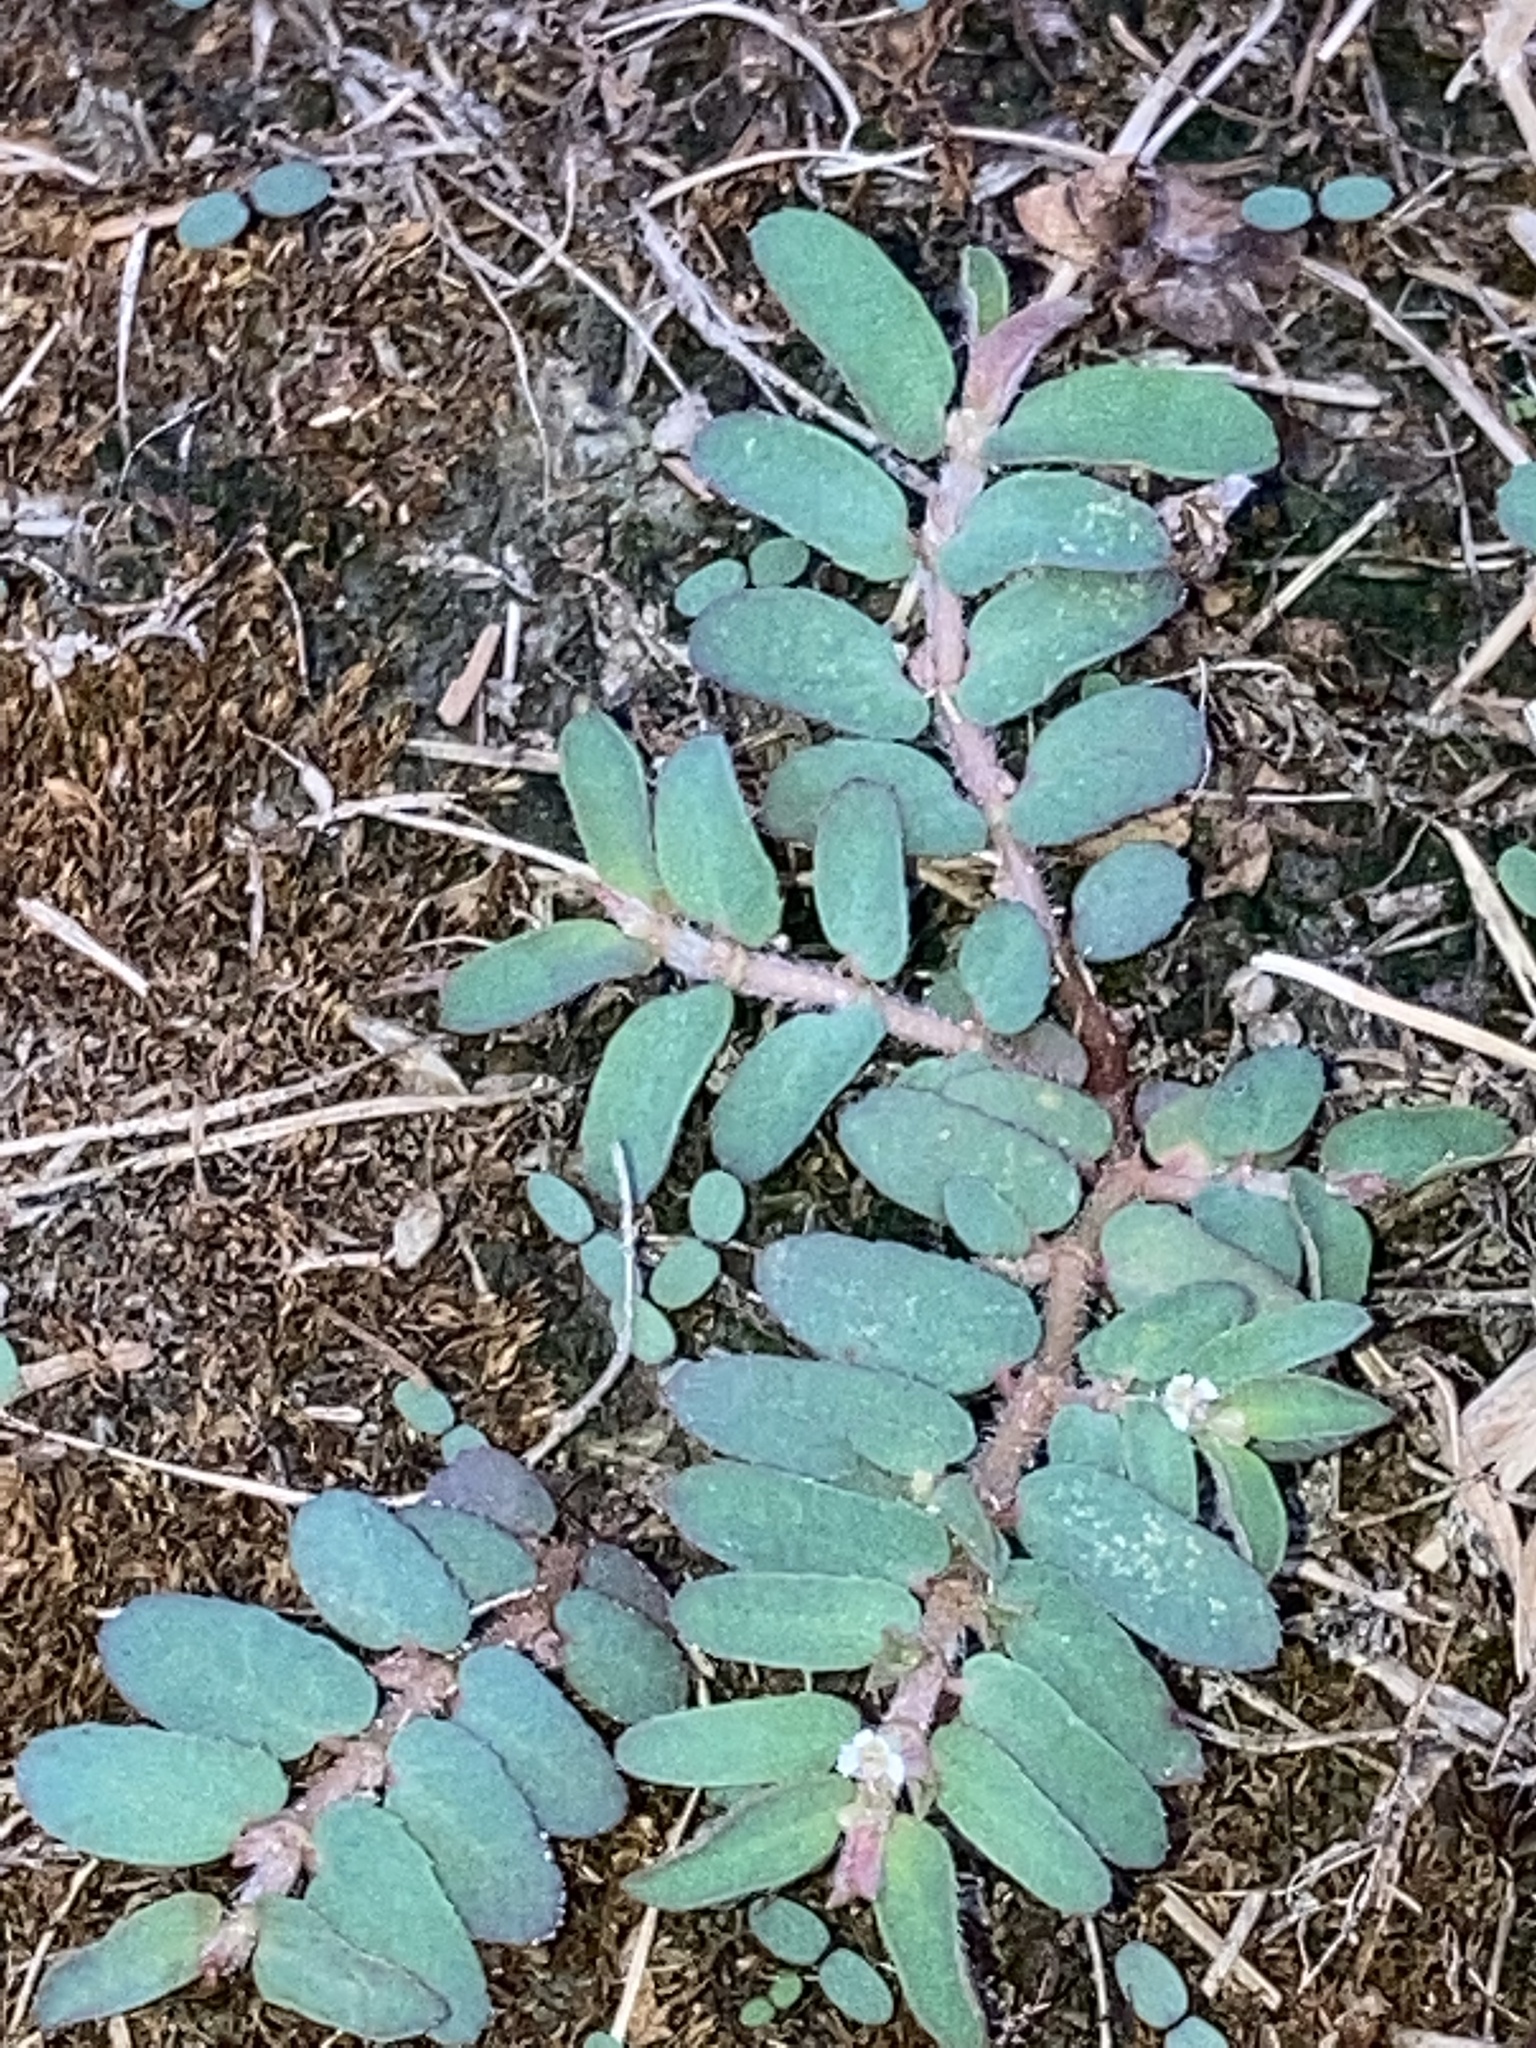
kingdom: Plantae
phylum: Tracheophyta
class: Magnoliopsida
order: Malpighiales
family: Euphorbiaceae
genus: Euphorbia
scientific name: Euphorbia maculata
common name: Spotted spurge
